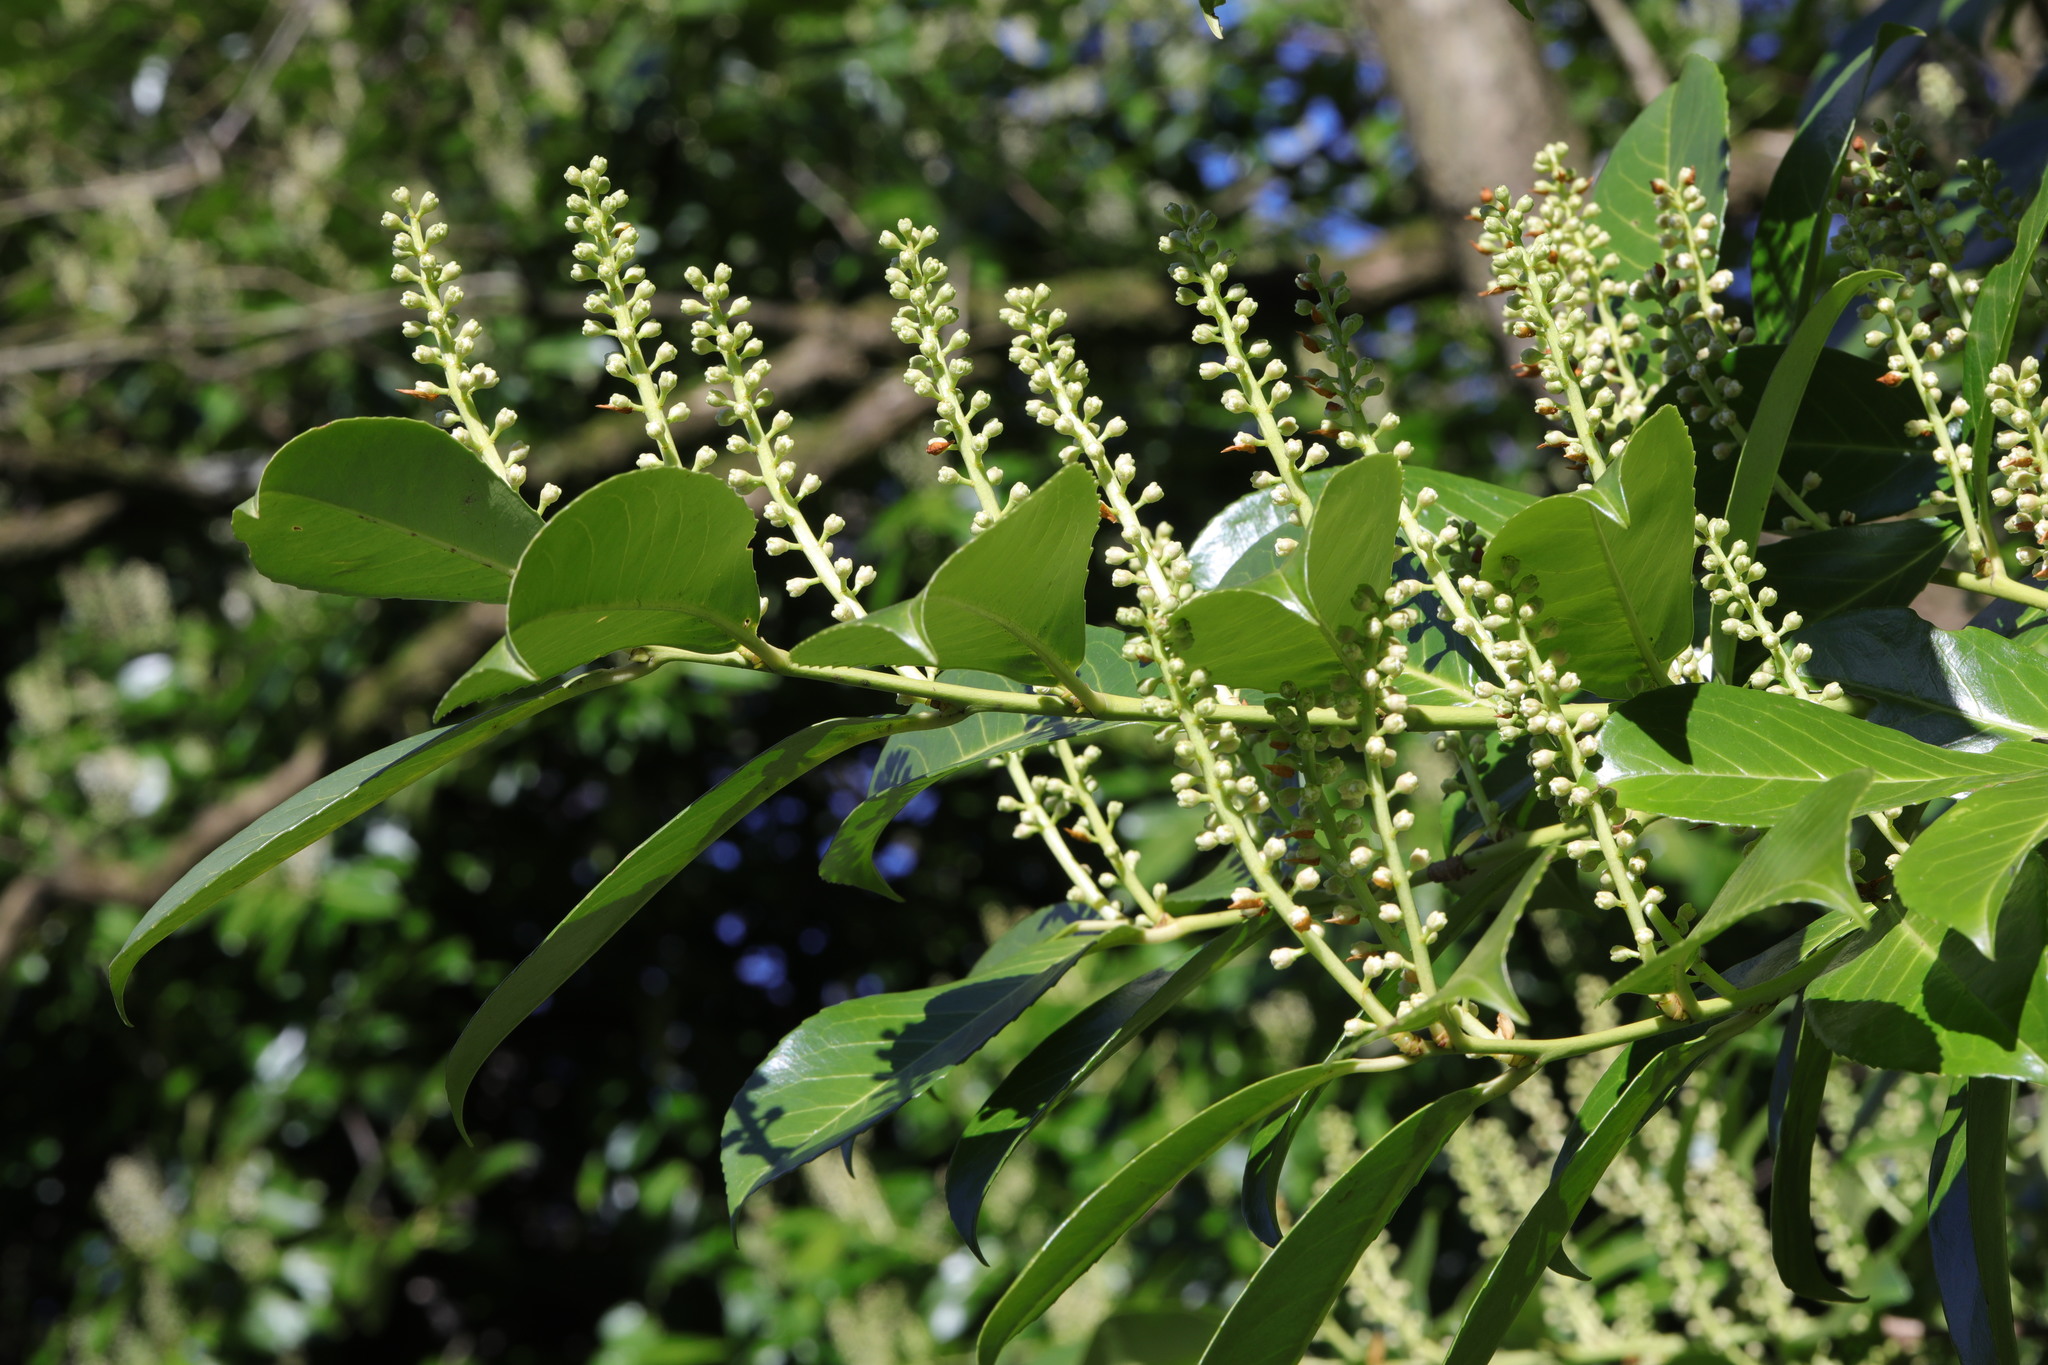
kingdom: Plantae
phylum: Tracheophyta
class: Magnoliopsida
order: Rosales
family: Rosaceae
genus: Prunus
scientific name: Prunus laurocerasus
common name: Cherry laurel
